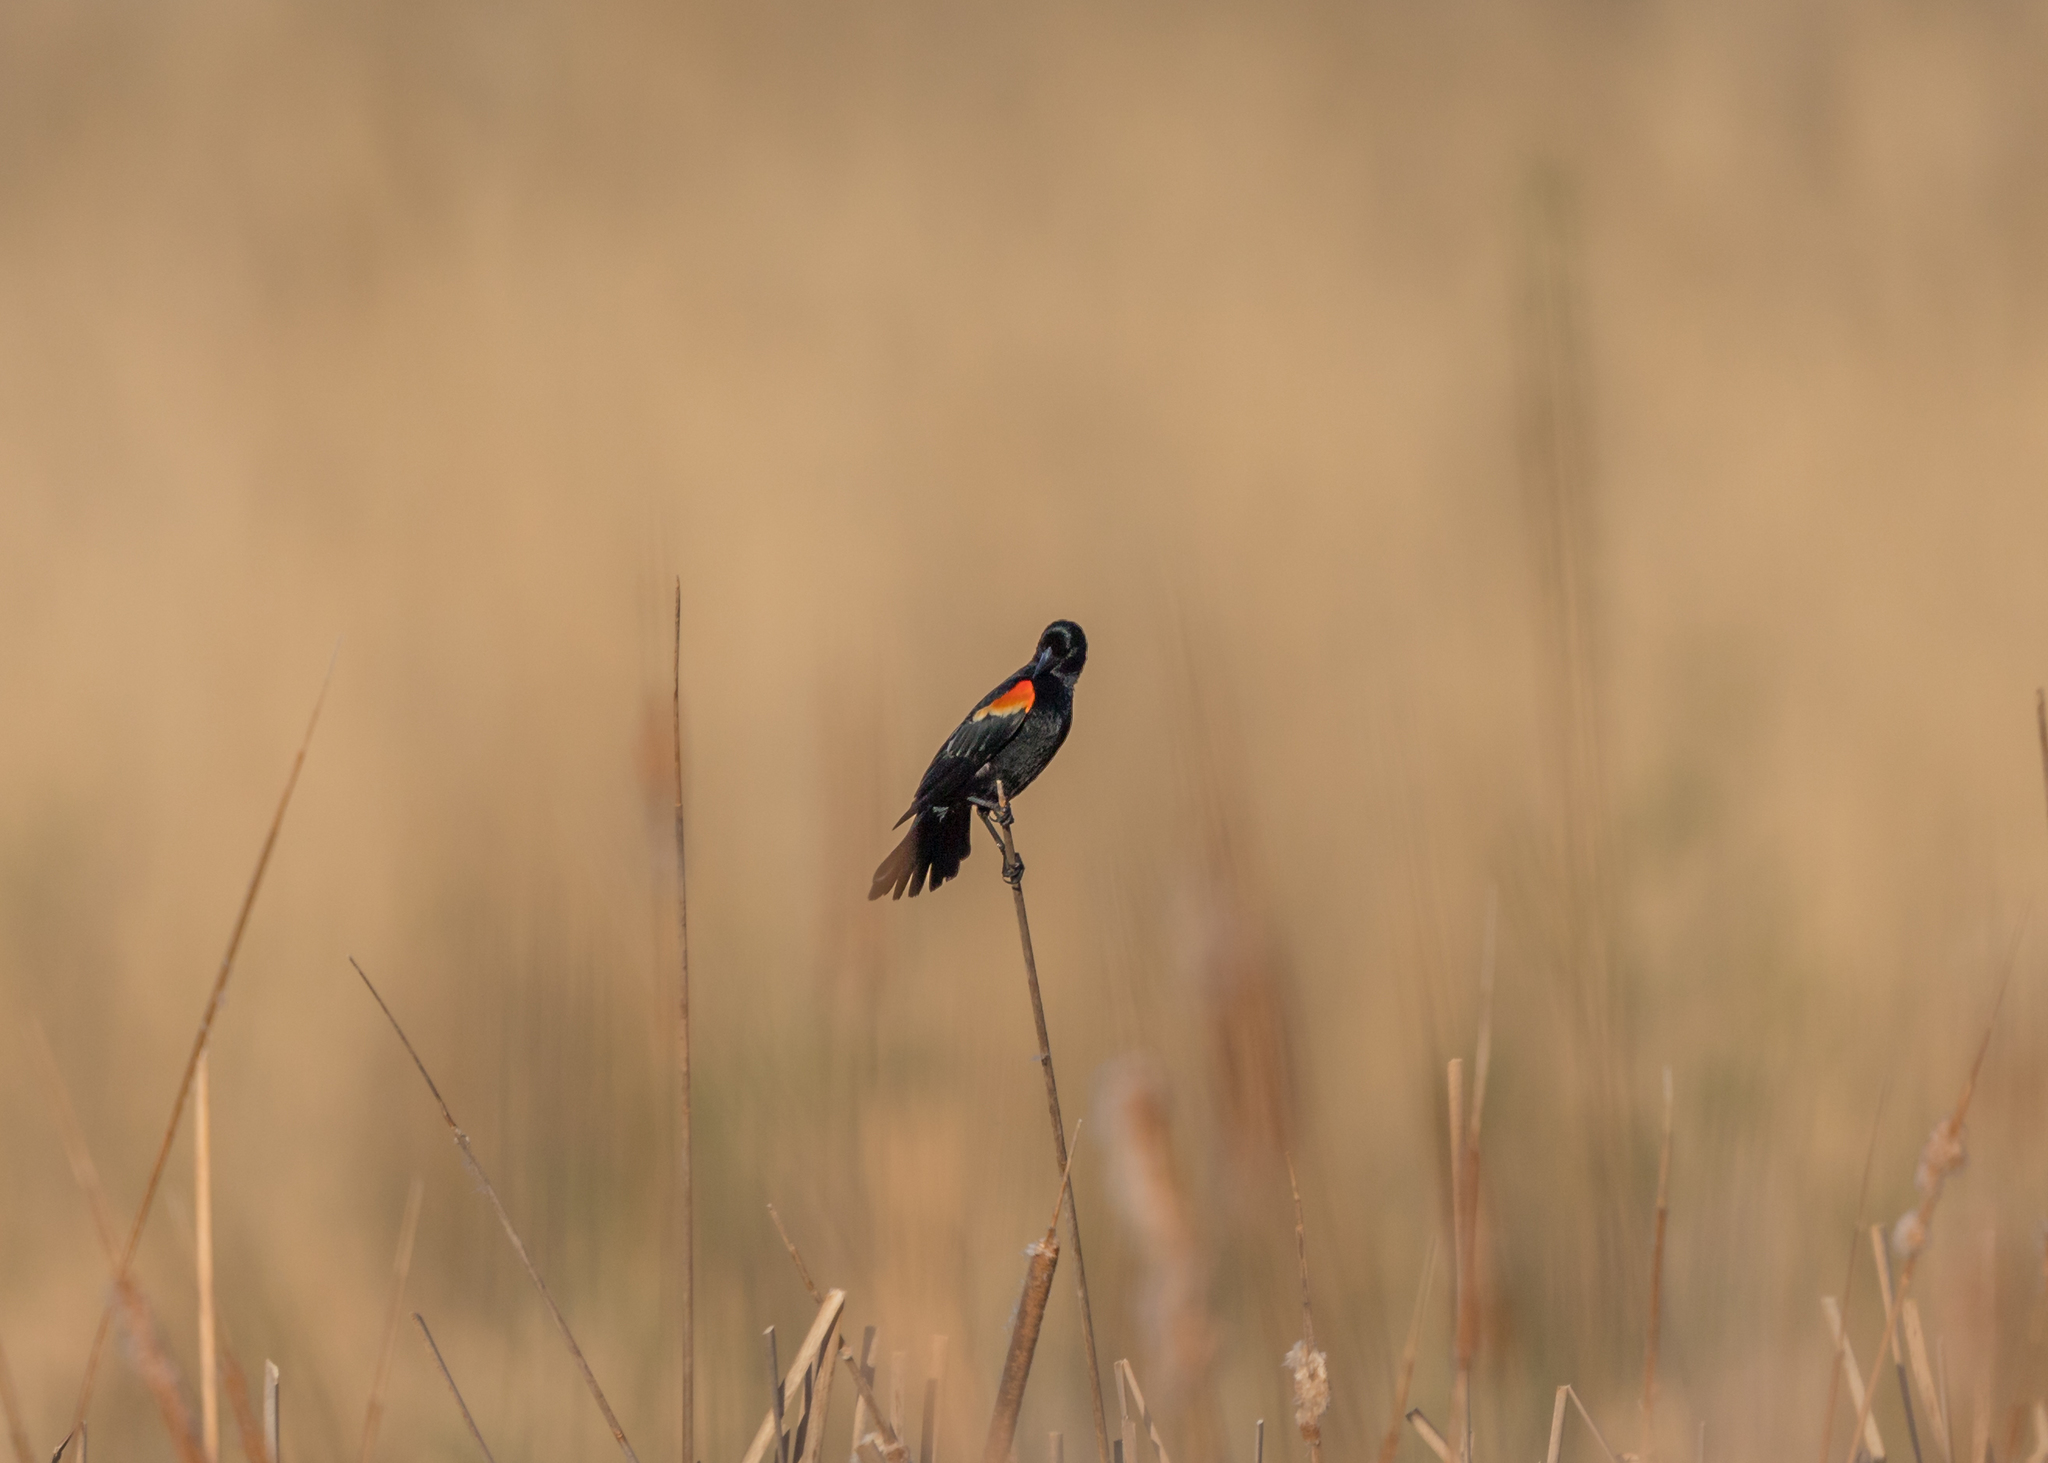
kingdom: Animalia
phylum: Chordata
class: Aves
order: Passeriformes
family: Icteridae
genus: Agelaius
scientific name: Agelaius phoeniceus
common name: Red-winged blackbird
